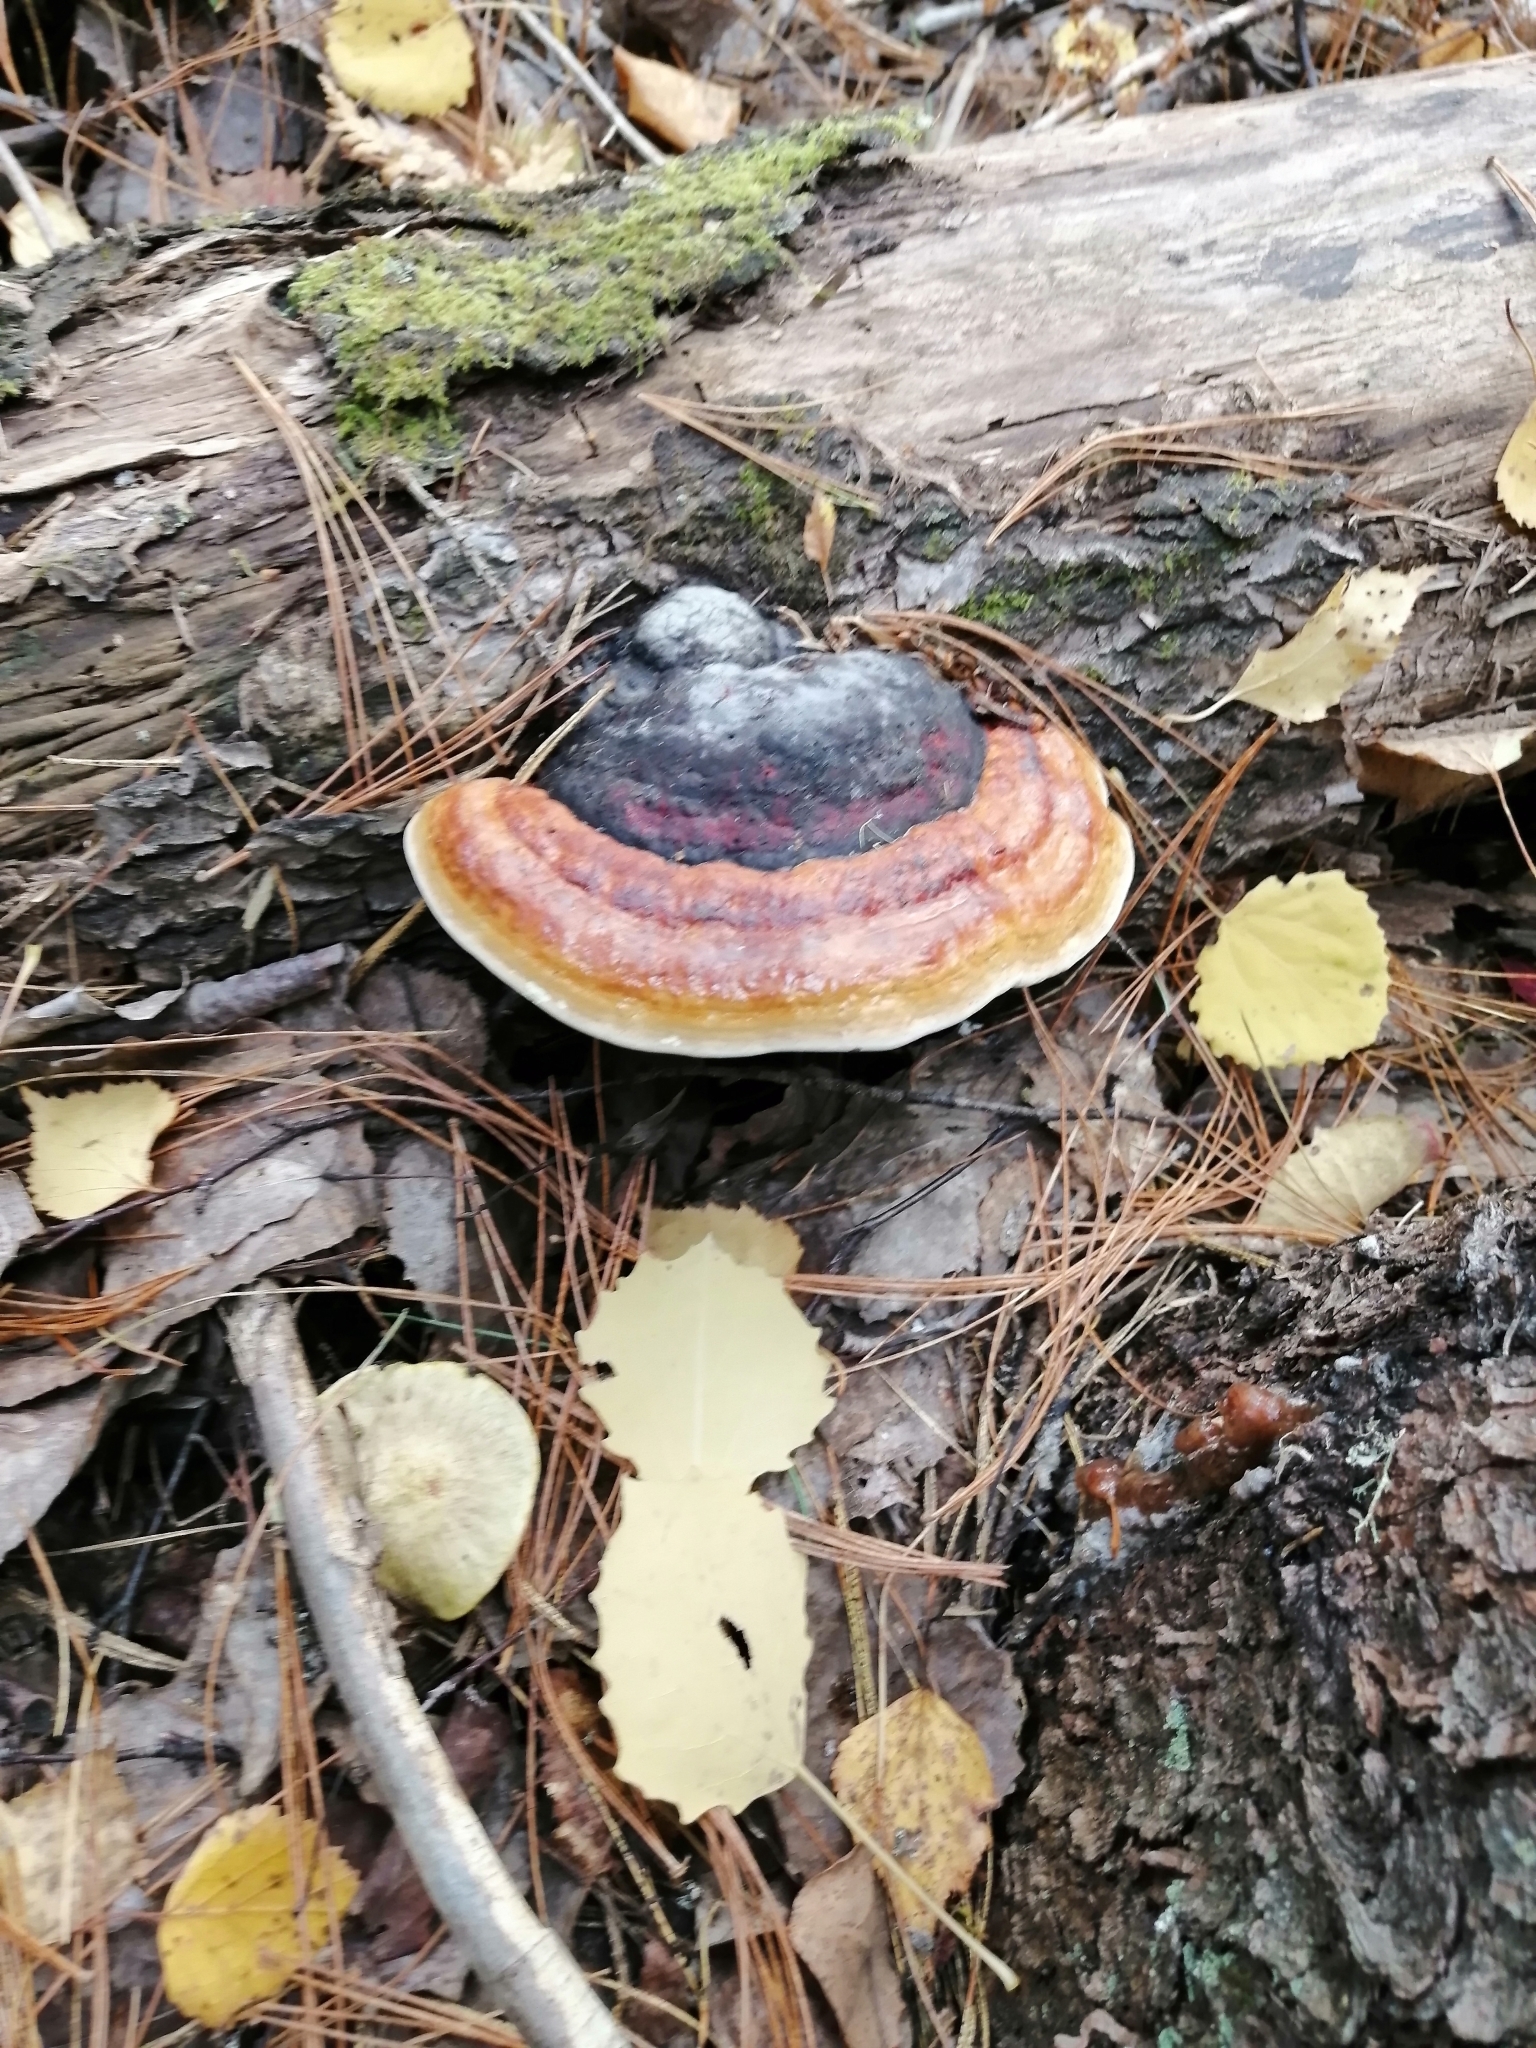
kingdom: Fungi
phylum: Basidiomycota
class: Agaricomycetes
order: Polyporales
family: Fomitopsidaceae
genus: Fomitopsis
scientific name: Fomitopsis pinicola
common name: Red-belted bracket
